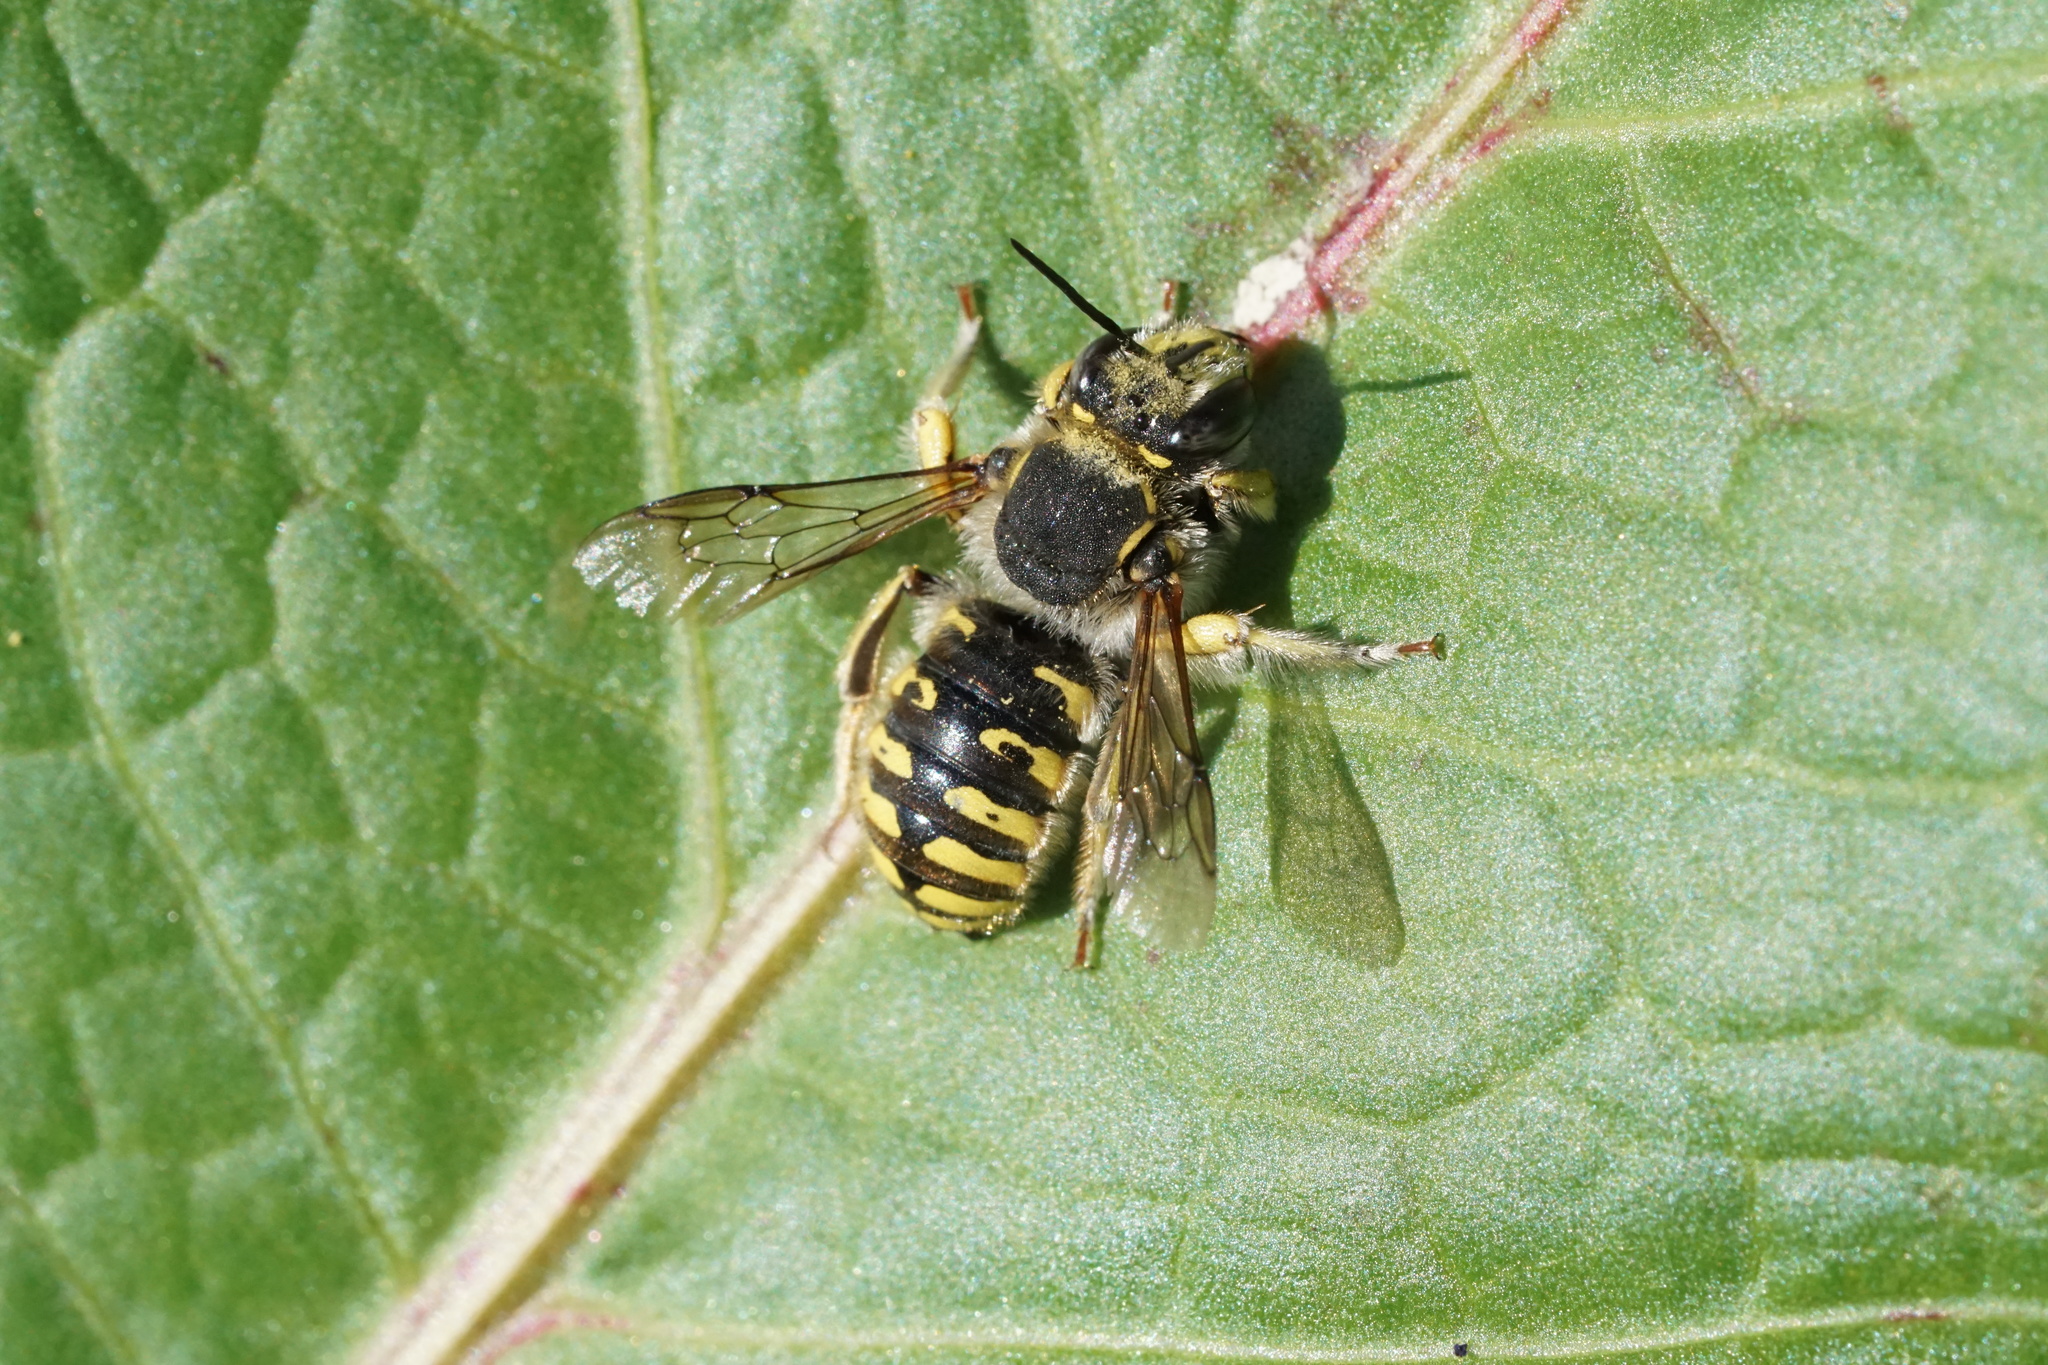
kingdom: Animalia
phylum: Arthropoda
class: Insecta
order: Hymenoptera
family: Megachilidae
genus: Anthidium
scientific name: Anthidium manicatum
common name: Wool carder bee
